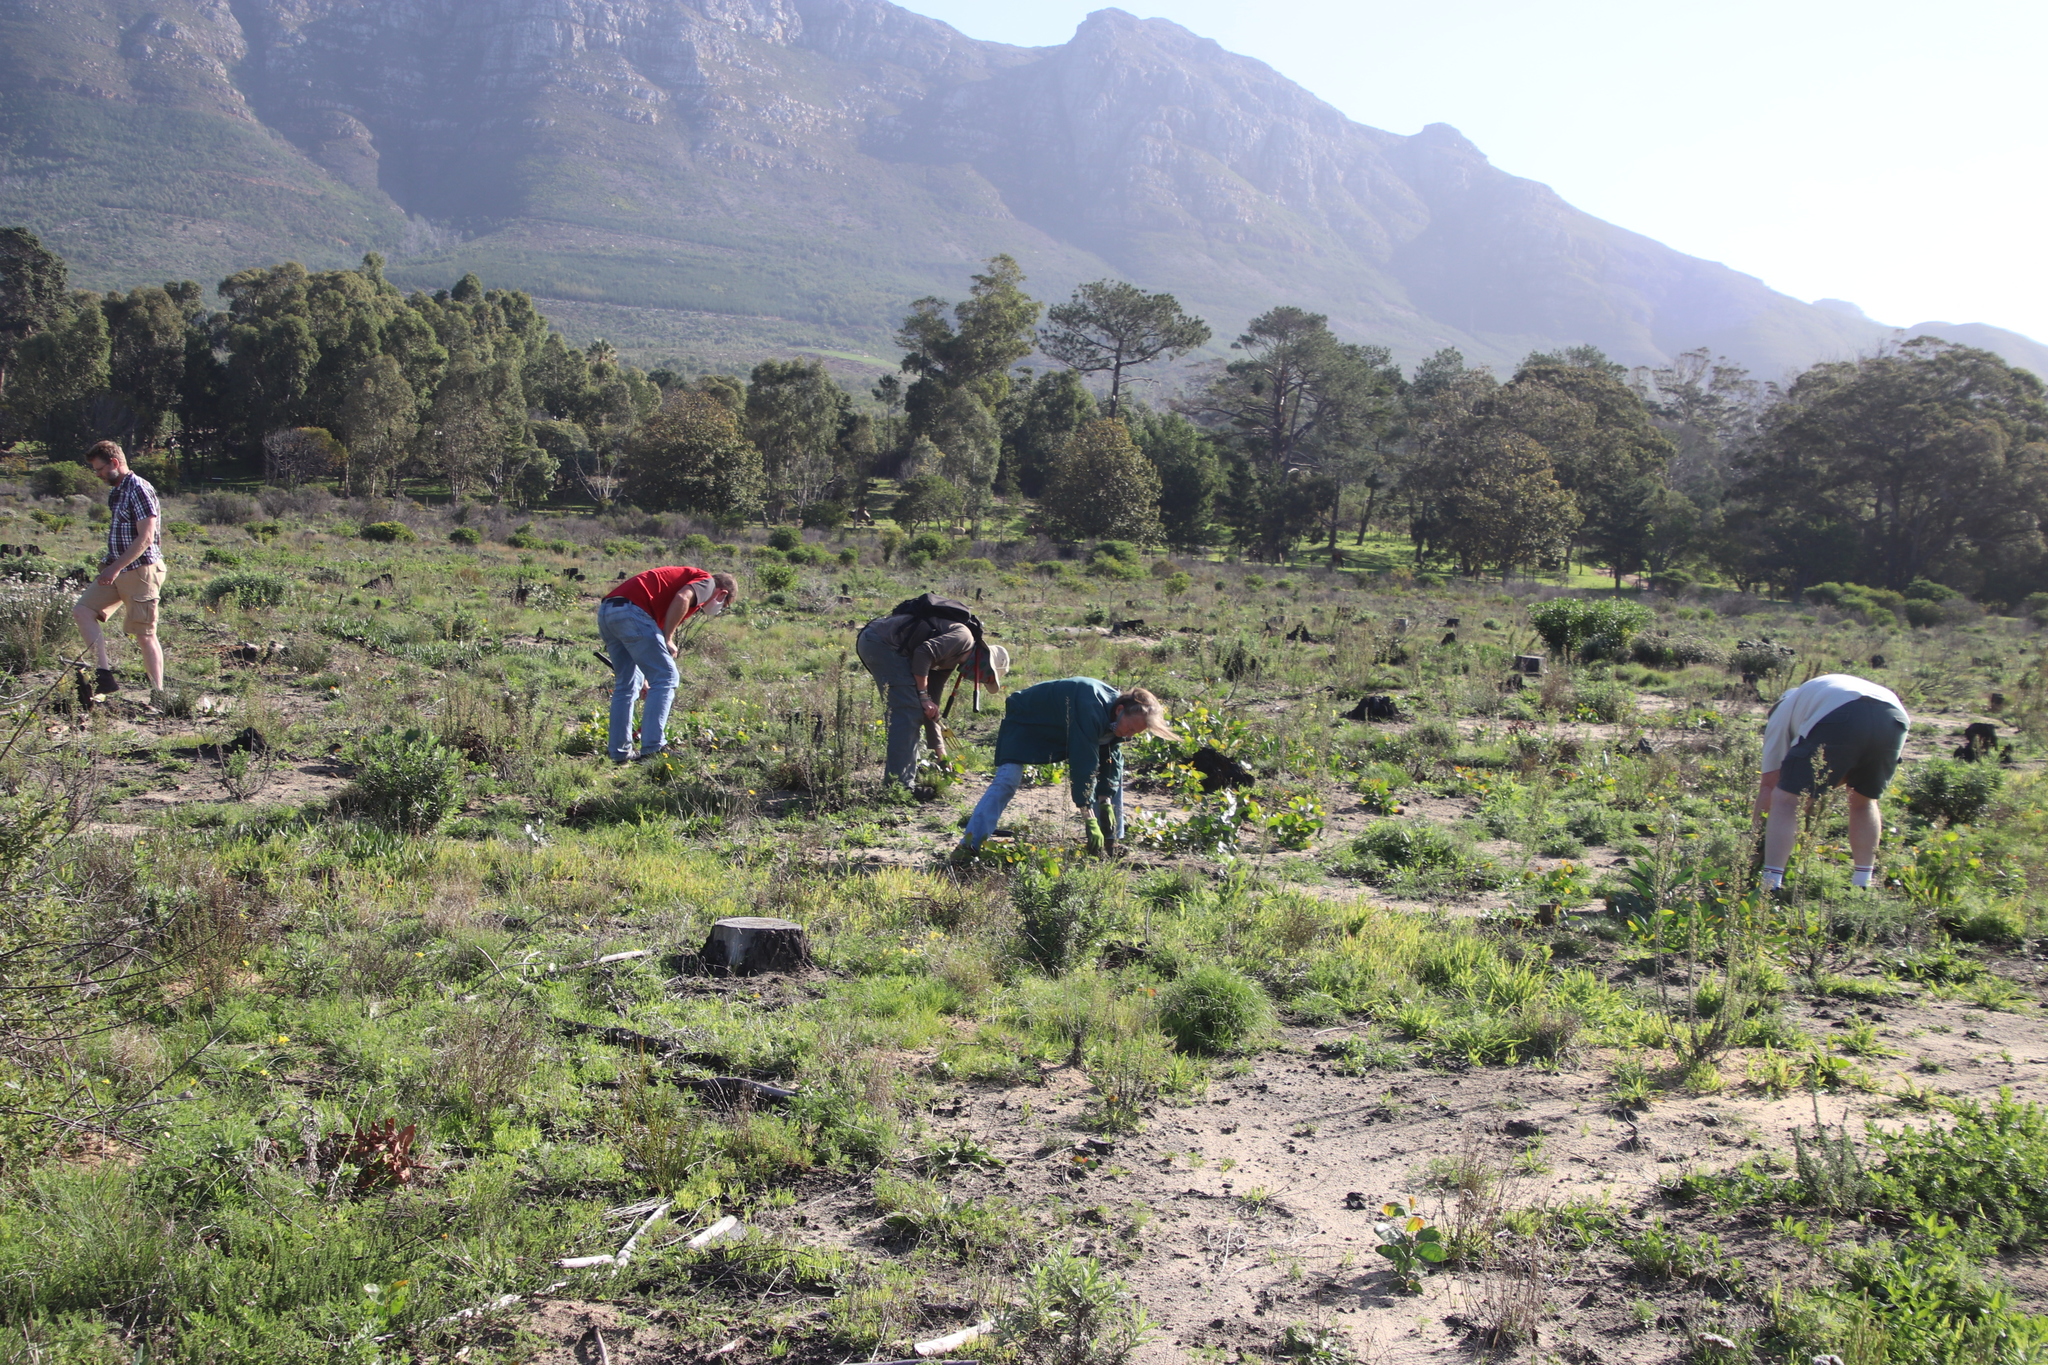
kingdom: Plantae
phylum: Tracheophyta
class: Magnoliopsida
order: Fabales
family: Fabaceae
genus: Acacia
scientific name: Acacia pycnantha
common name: Golden wattle
